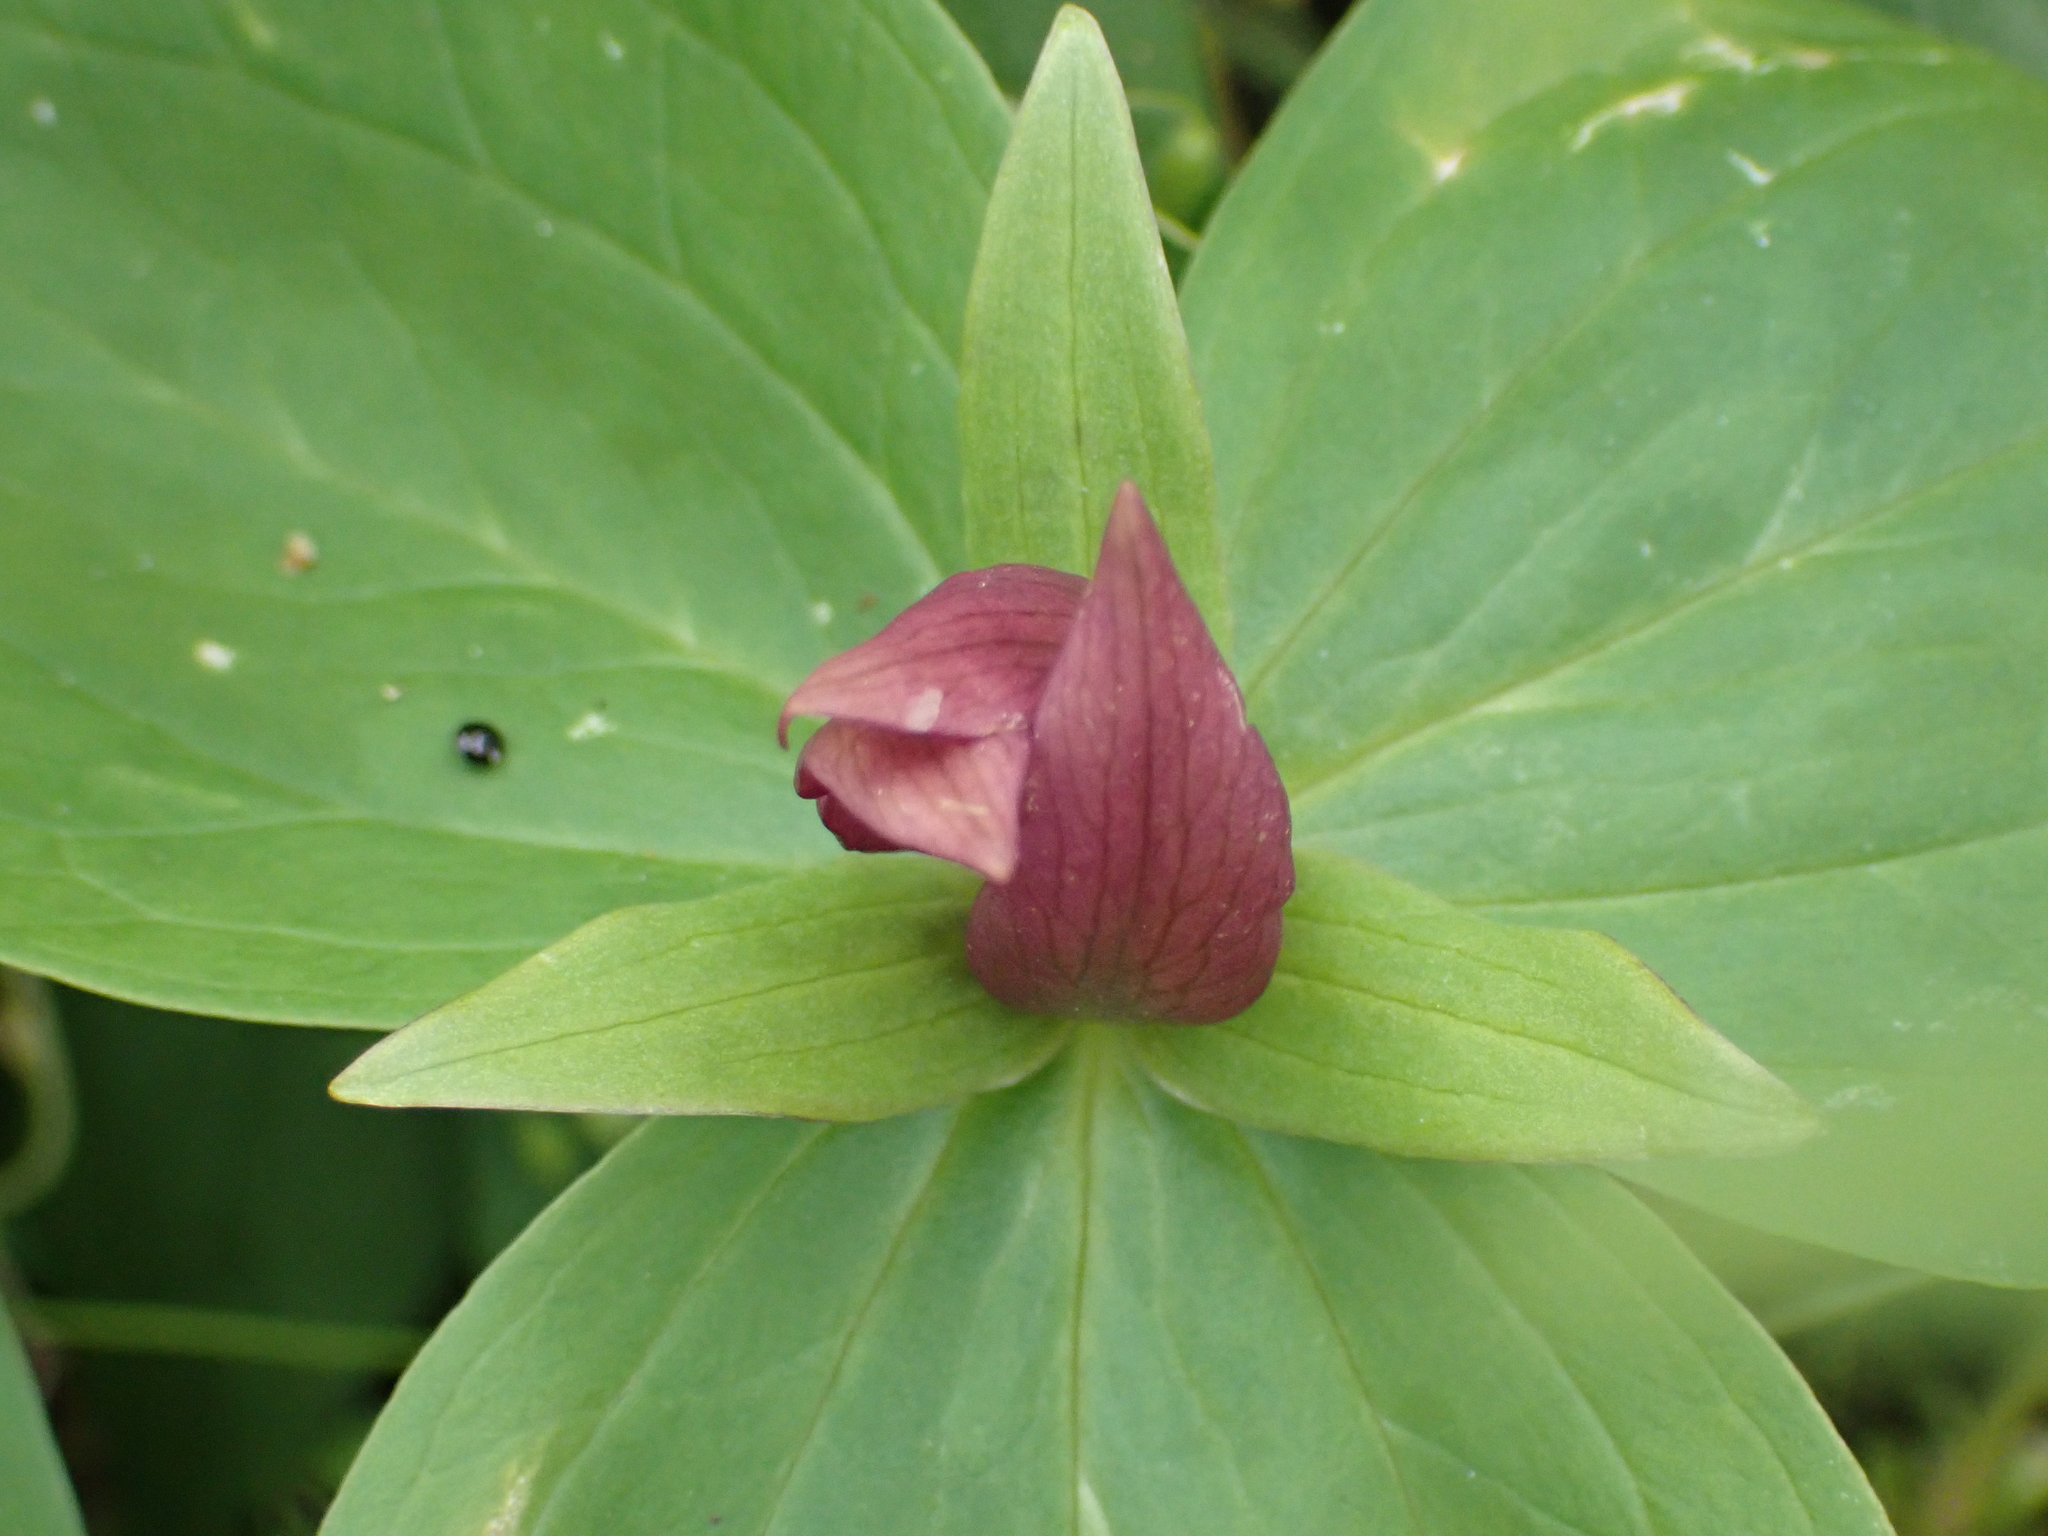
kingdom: Plantae
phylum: Tracheophyta
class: Liliopsida
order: Liliales
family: Melanthiaceae
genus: Trillium
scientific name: Trillium sessile
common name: Sessile trillium
